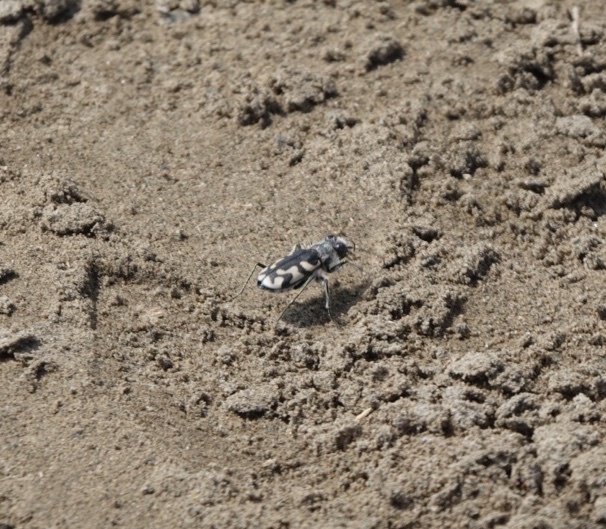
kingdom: Animalia
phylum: Arthropoda
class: Insecta
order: Coleoptera
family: Carabidae
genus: Cicindela
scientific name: Cicindela latesignata
